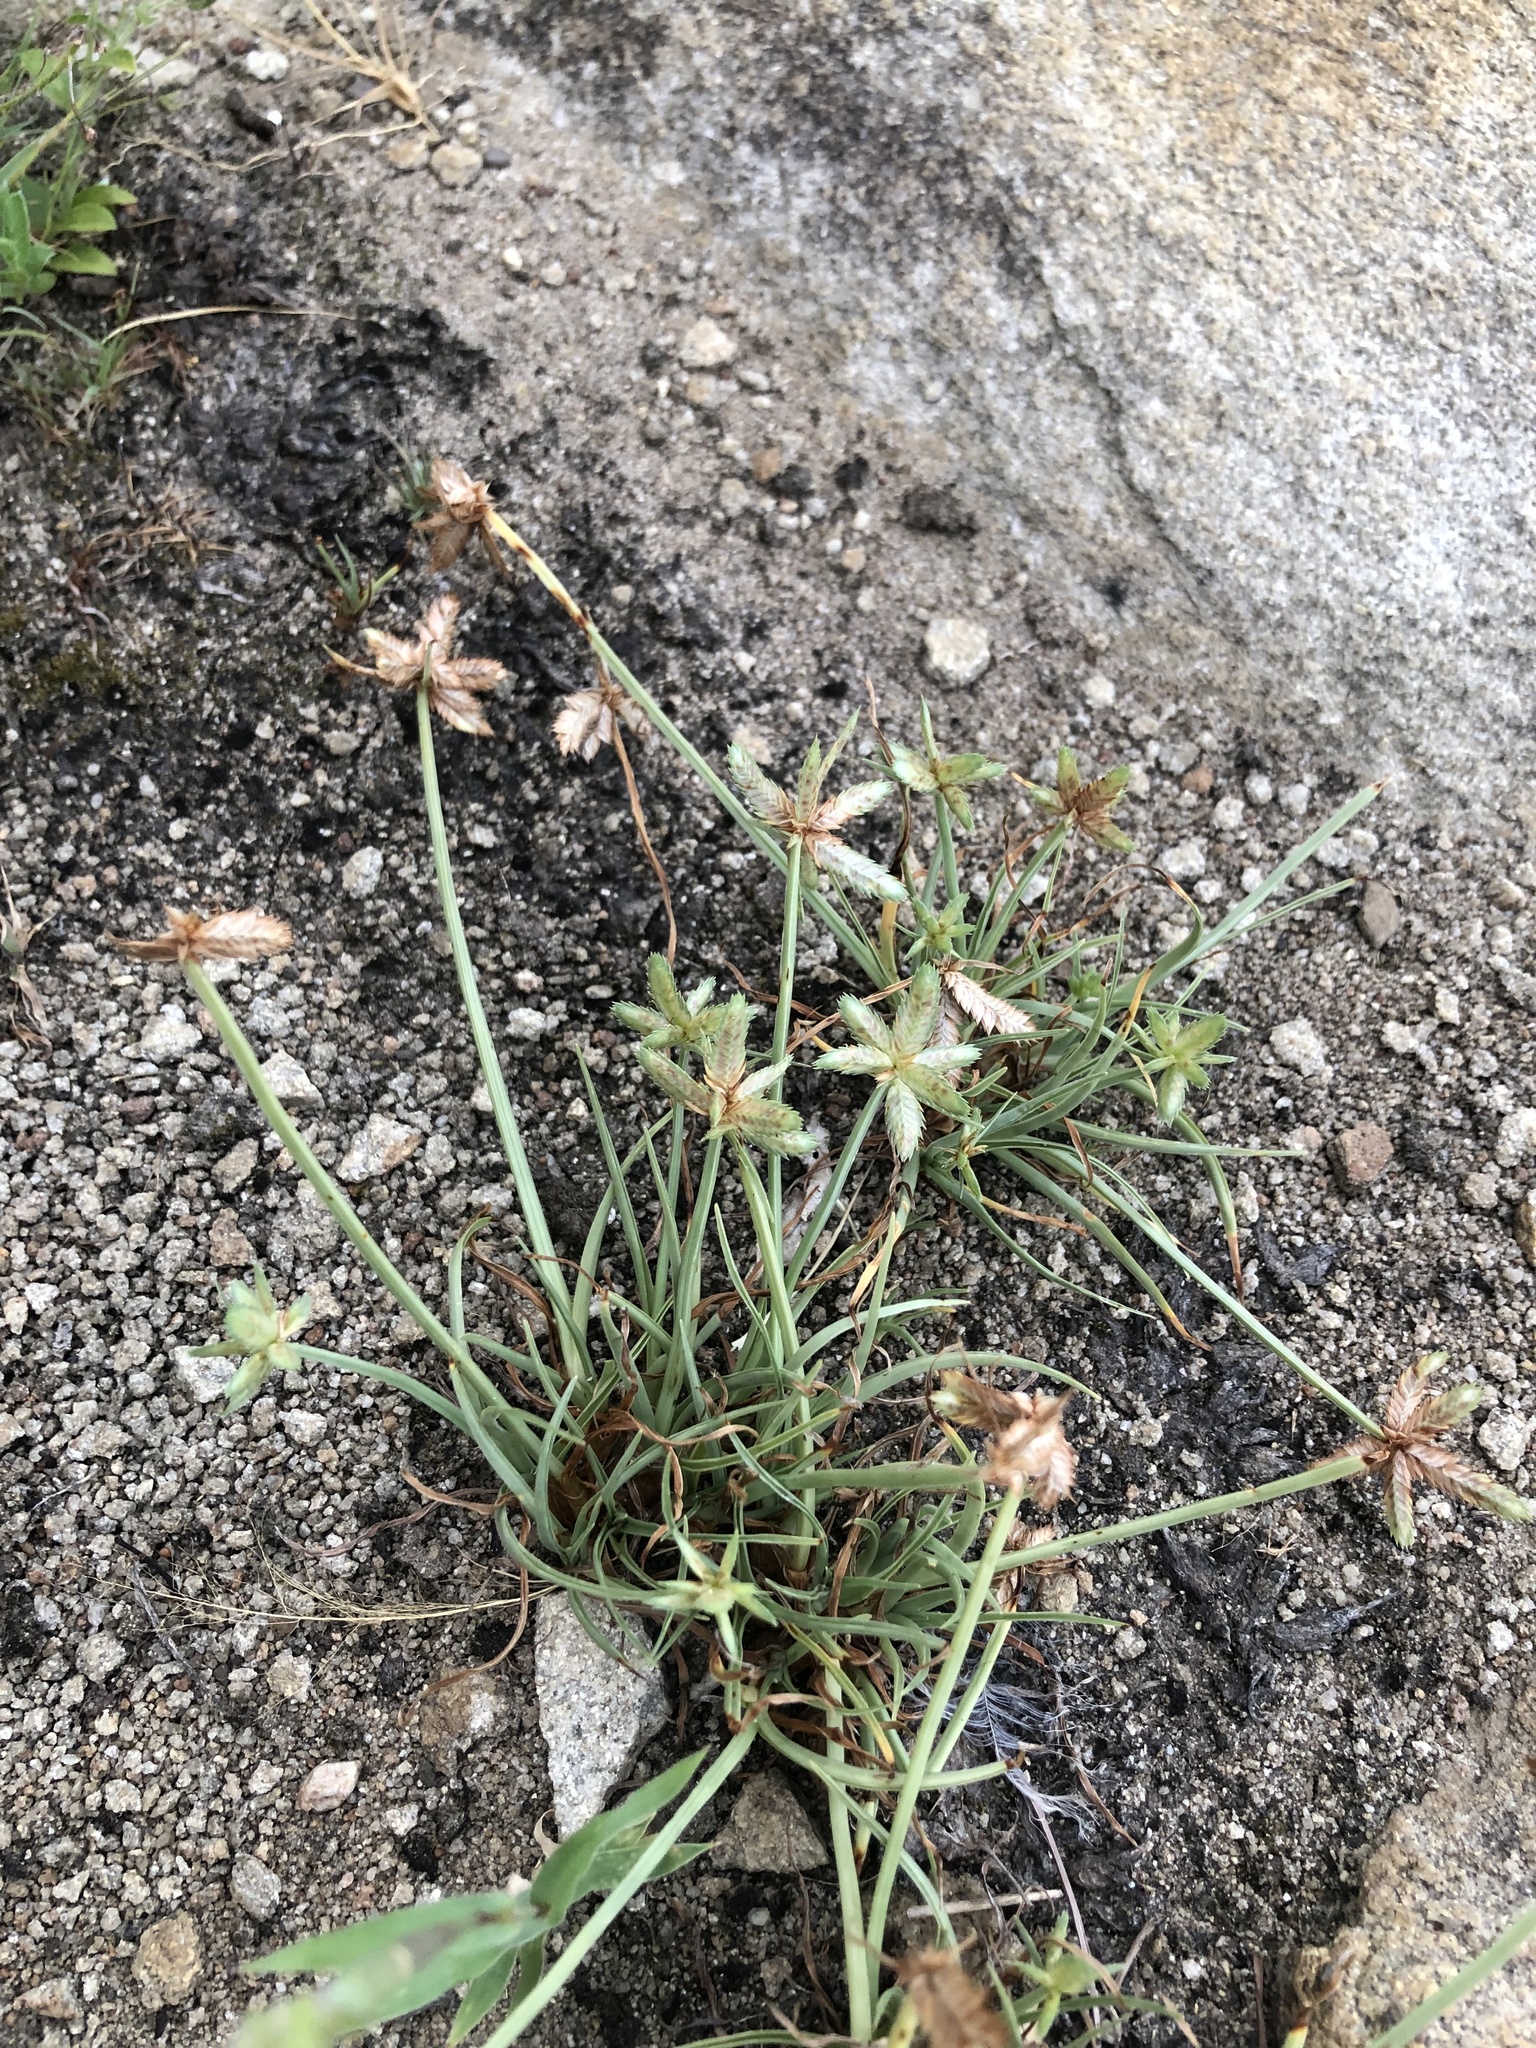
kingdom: Plantae
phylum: Tracheophyta
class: Liliopsida
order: Poales
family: Cyperaceae
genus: Cyperus
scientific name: Cyperus rubicundus
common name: Coco-grass
